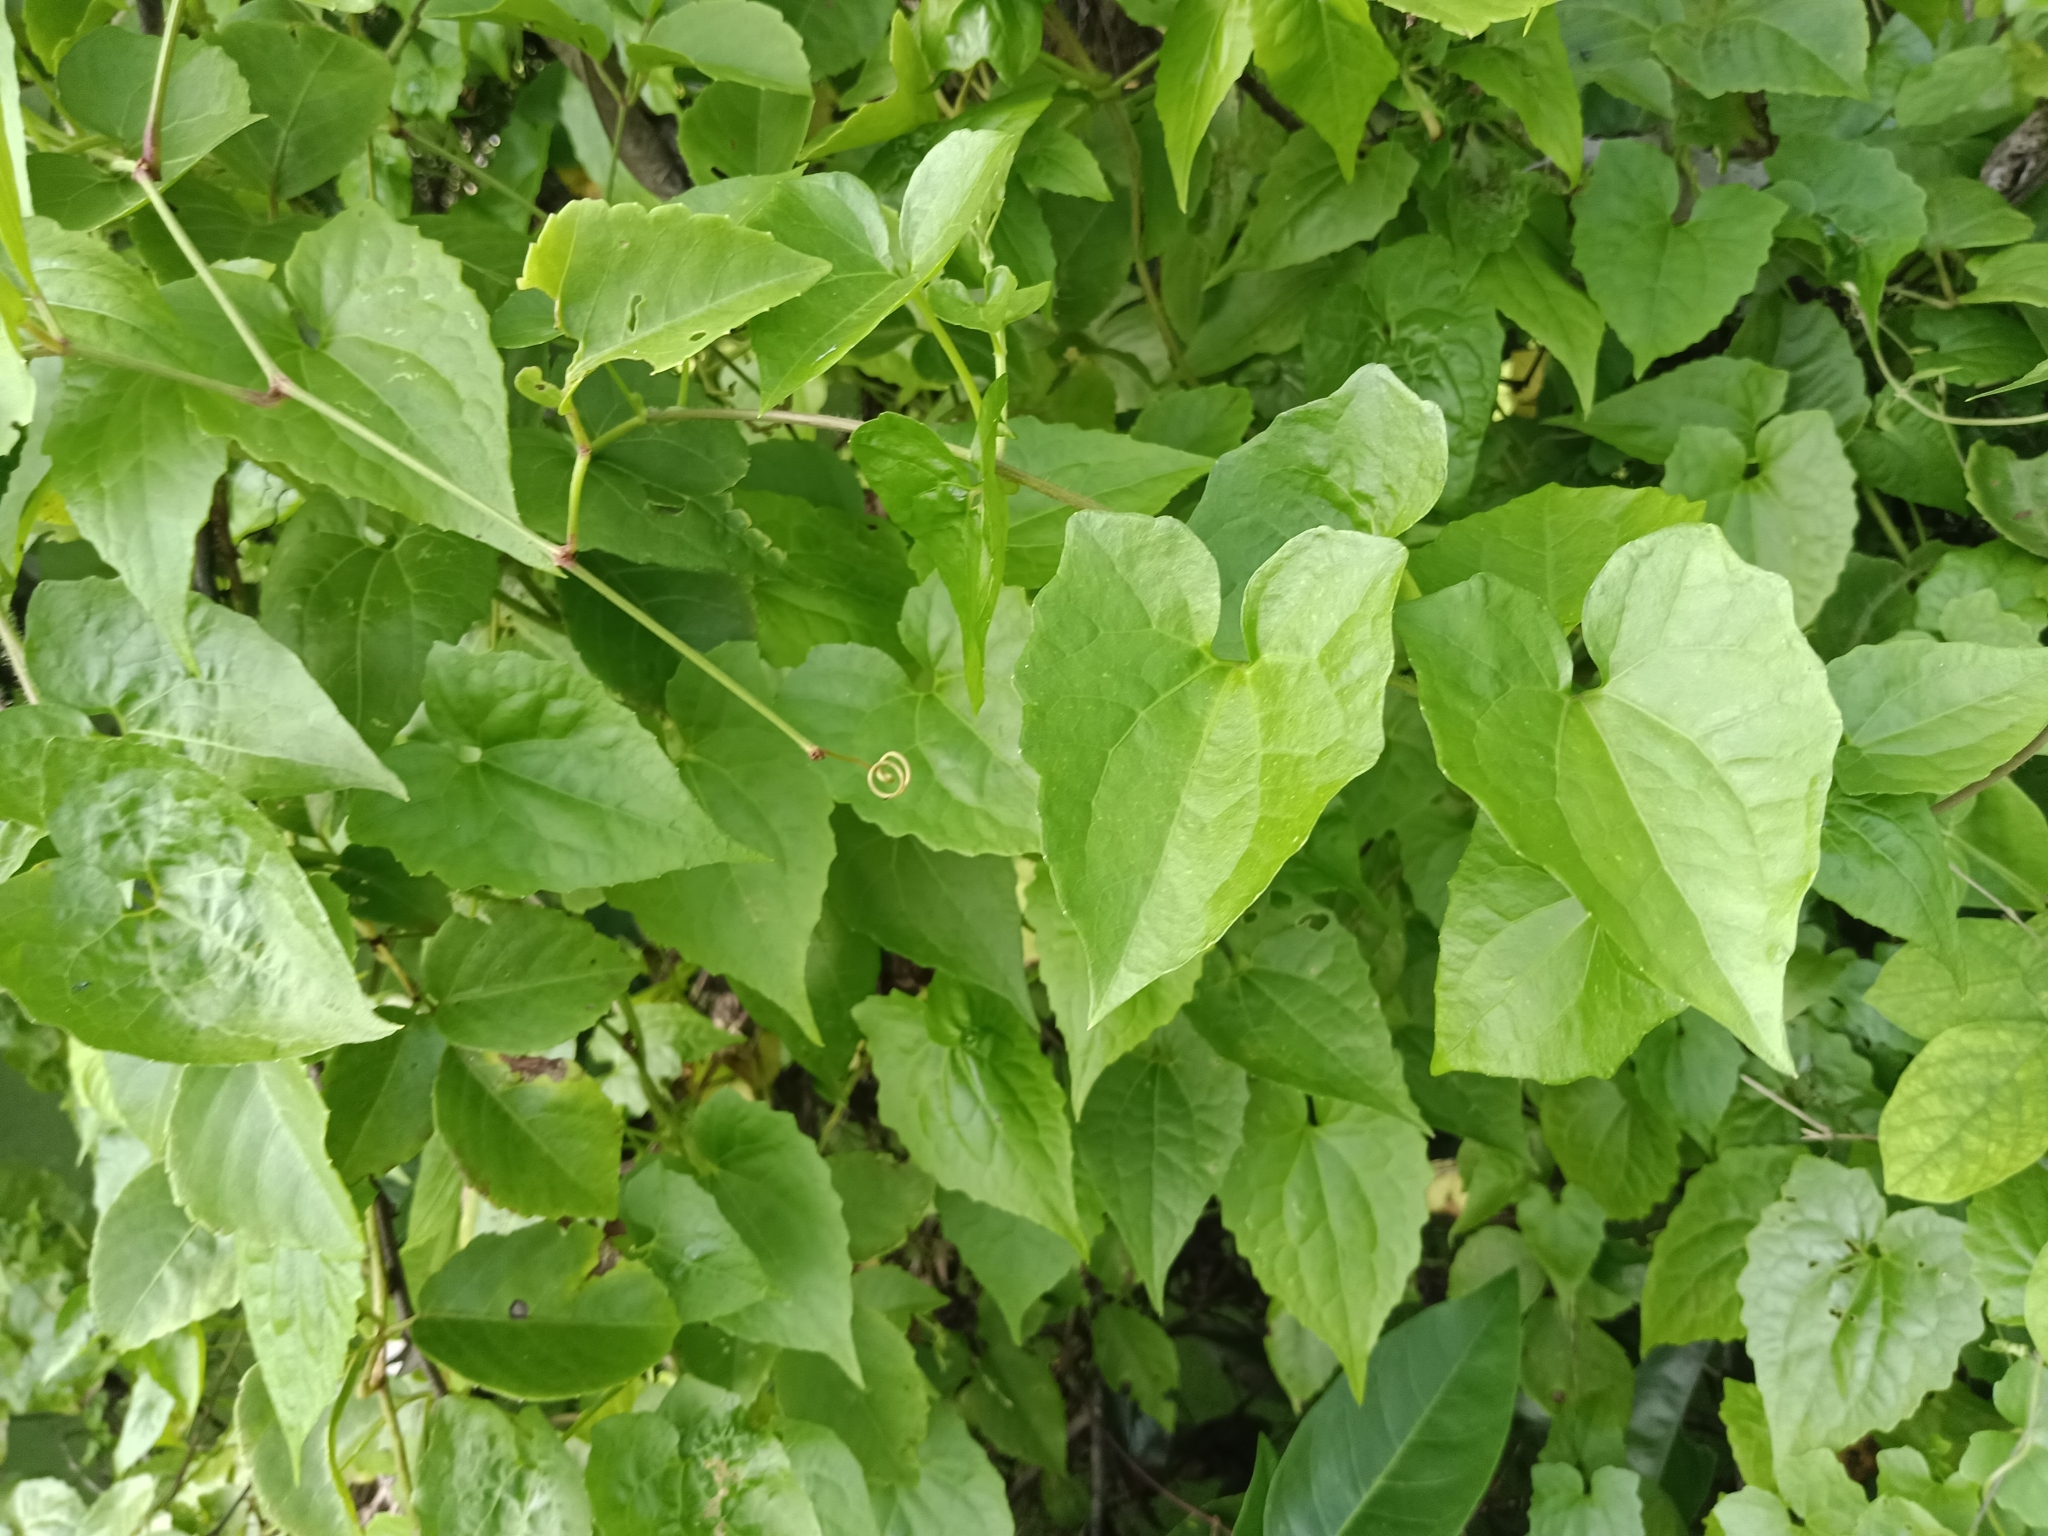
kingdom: Plantae
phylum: Tracheophyta
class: Magnoliopsida
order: Asterales
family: Asteraceae
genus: Mikania
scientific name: Mikania micrantha
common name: Mile-a-minute
